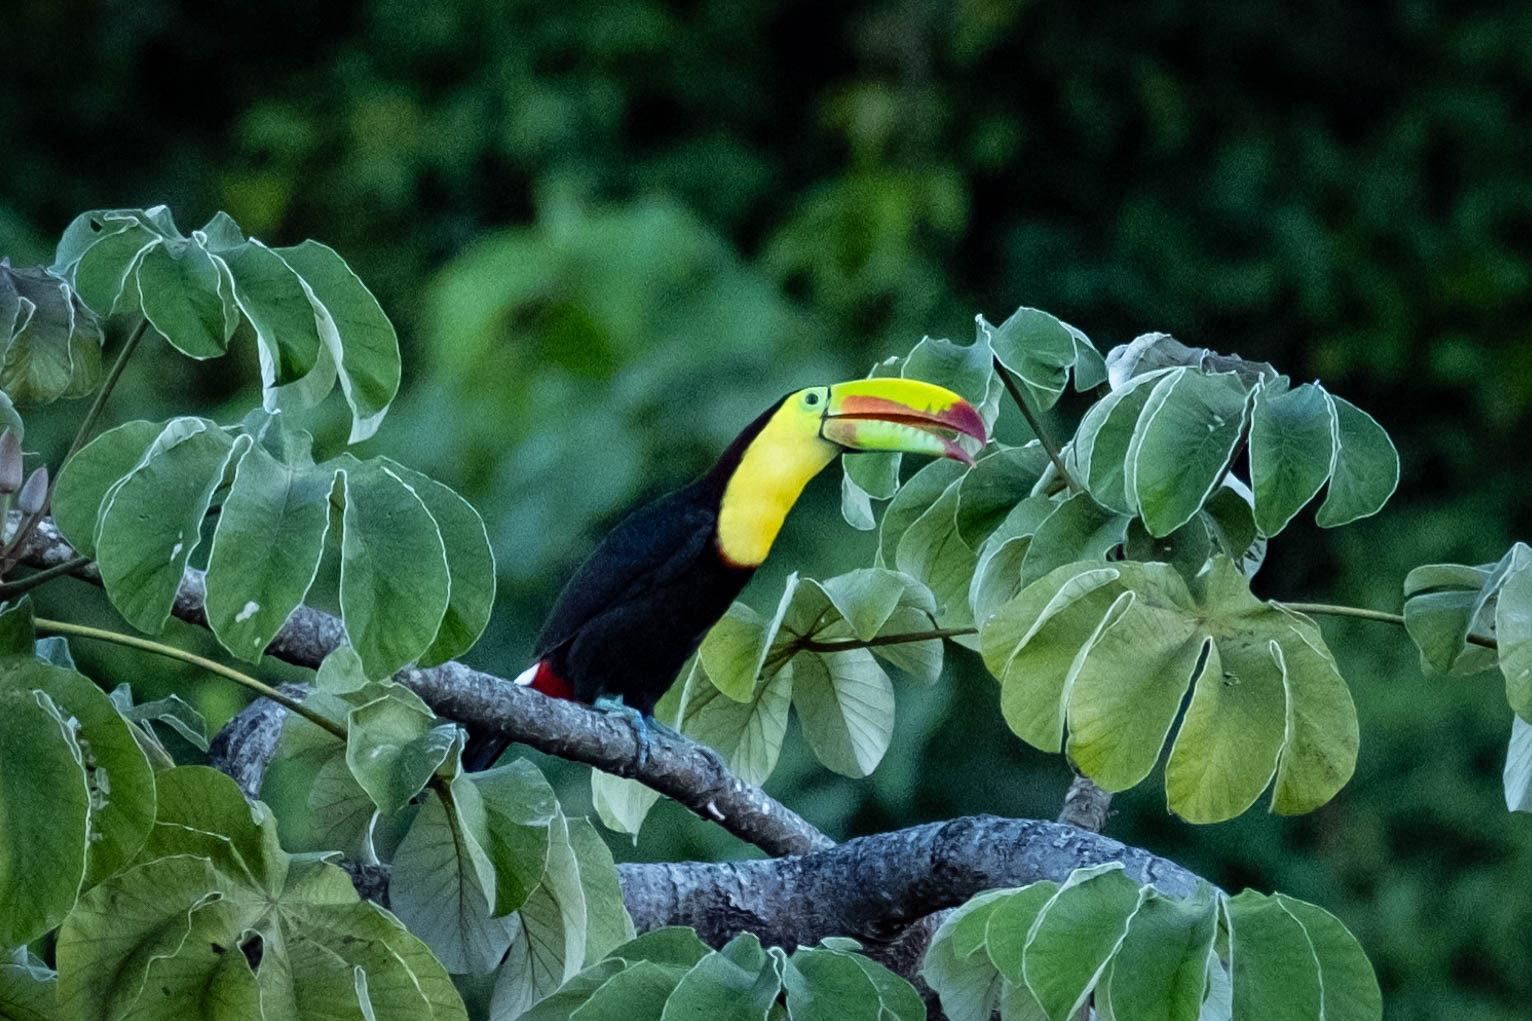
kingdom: Animalia
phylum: Chordata
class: Aves
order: Piciformes
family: Ramphastidae
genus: Ramphastos
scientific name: Ramphastos sulfuratus
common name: Keel-billed toucan
